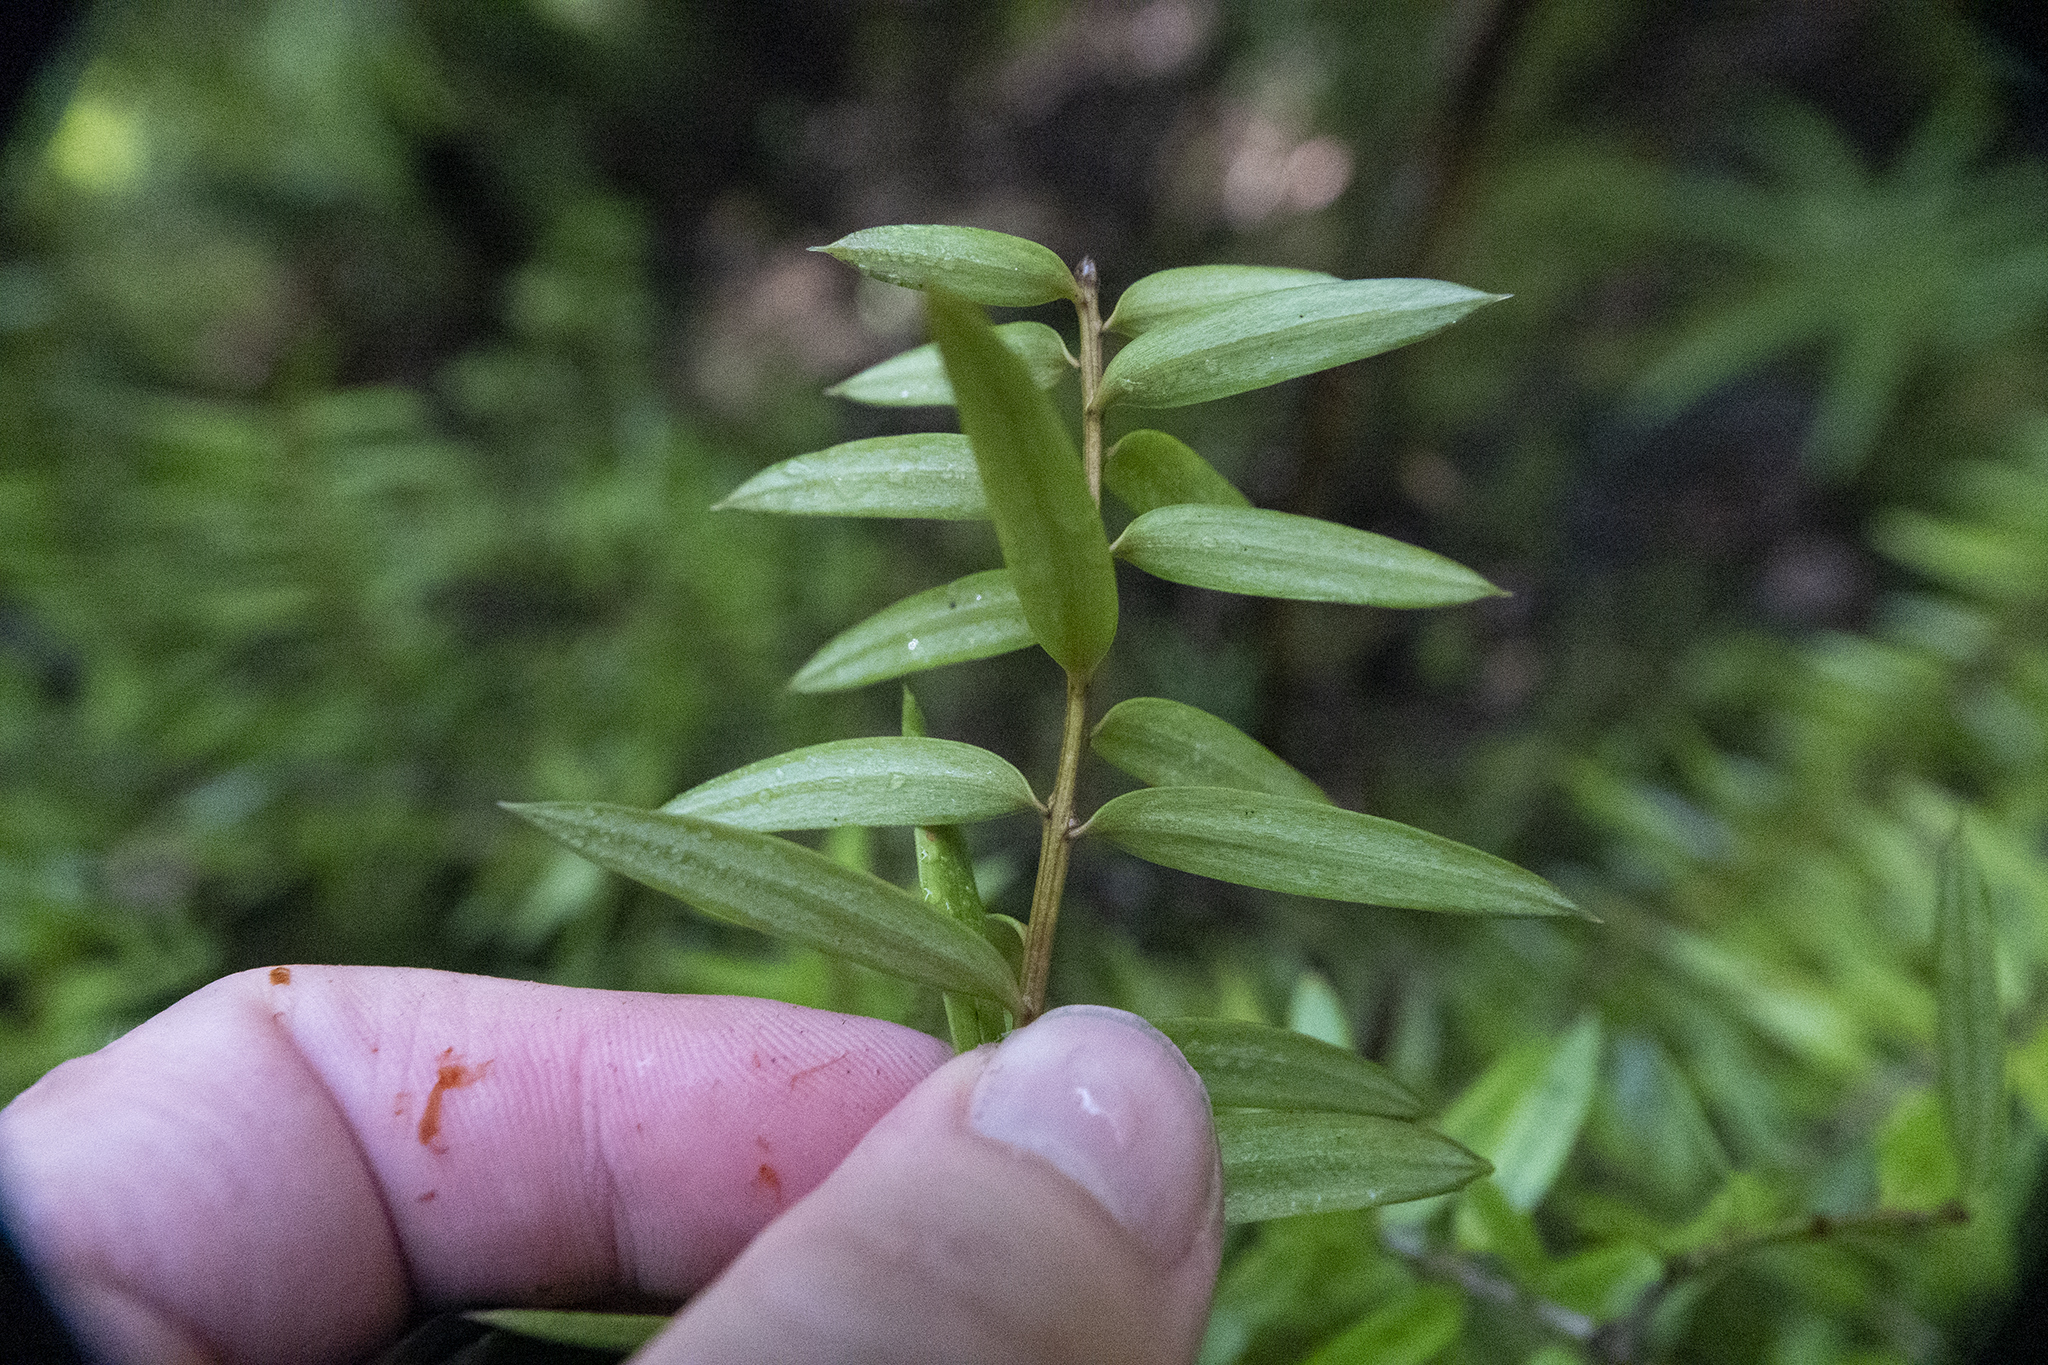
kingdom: Plantae
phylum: Tracheophyta
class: Pinopsida
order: Pinales
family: Podocarpaceae
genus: Podocarpus
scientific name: Podocarpus laetus
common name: Hall's totara
